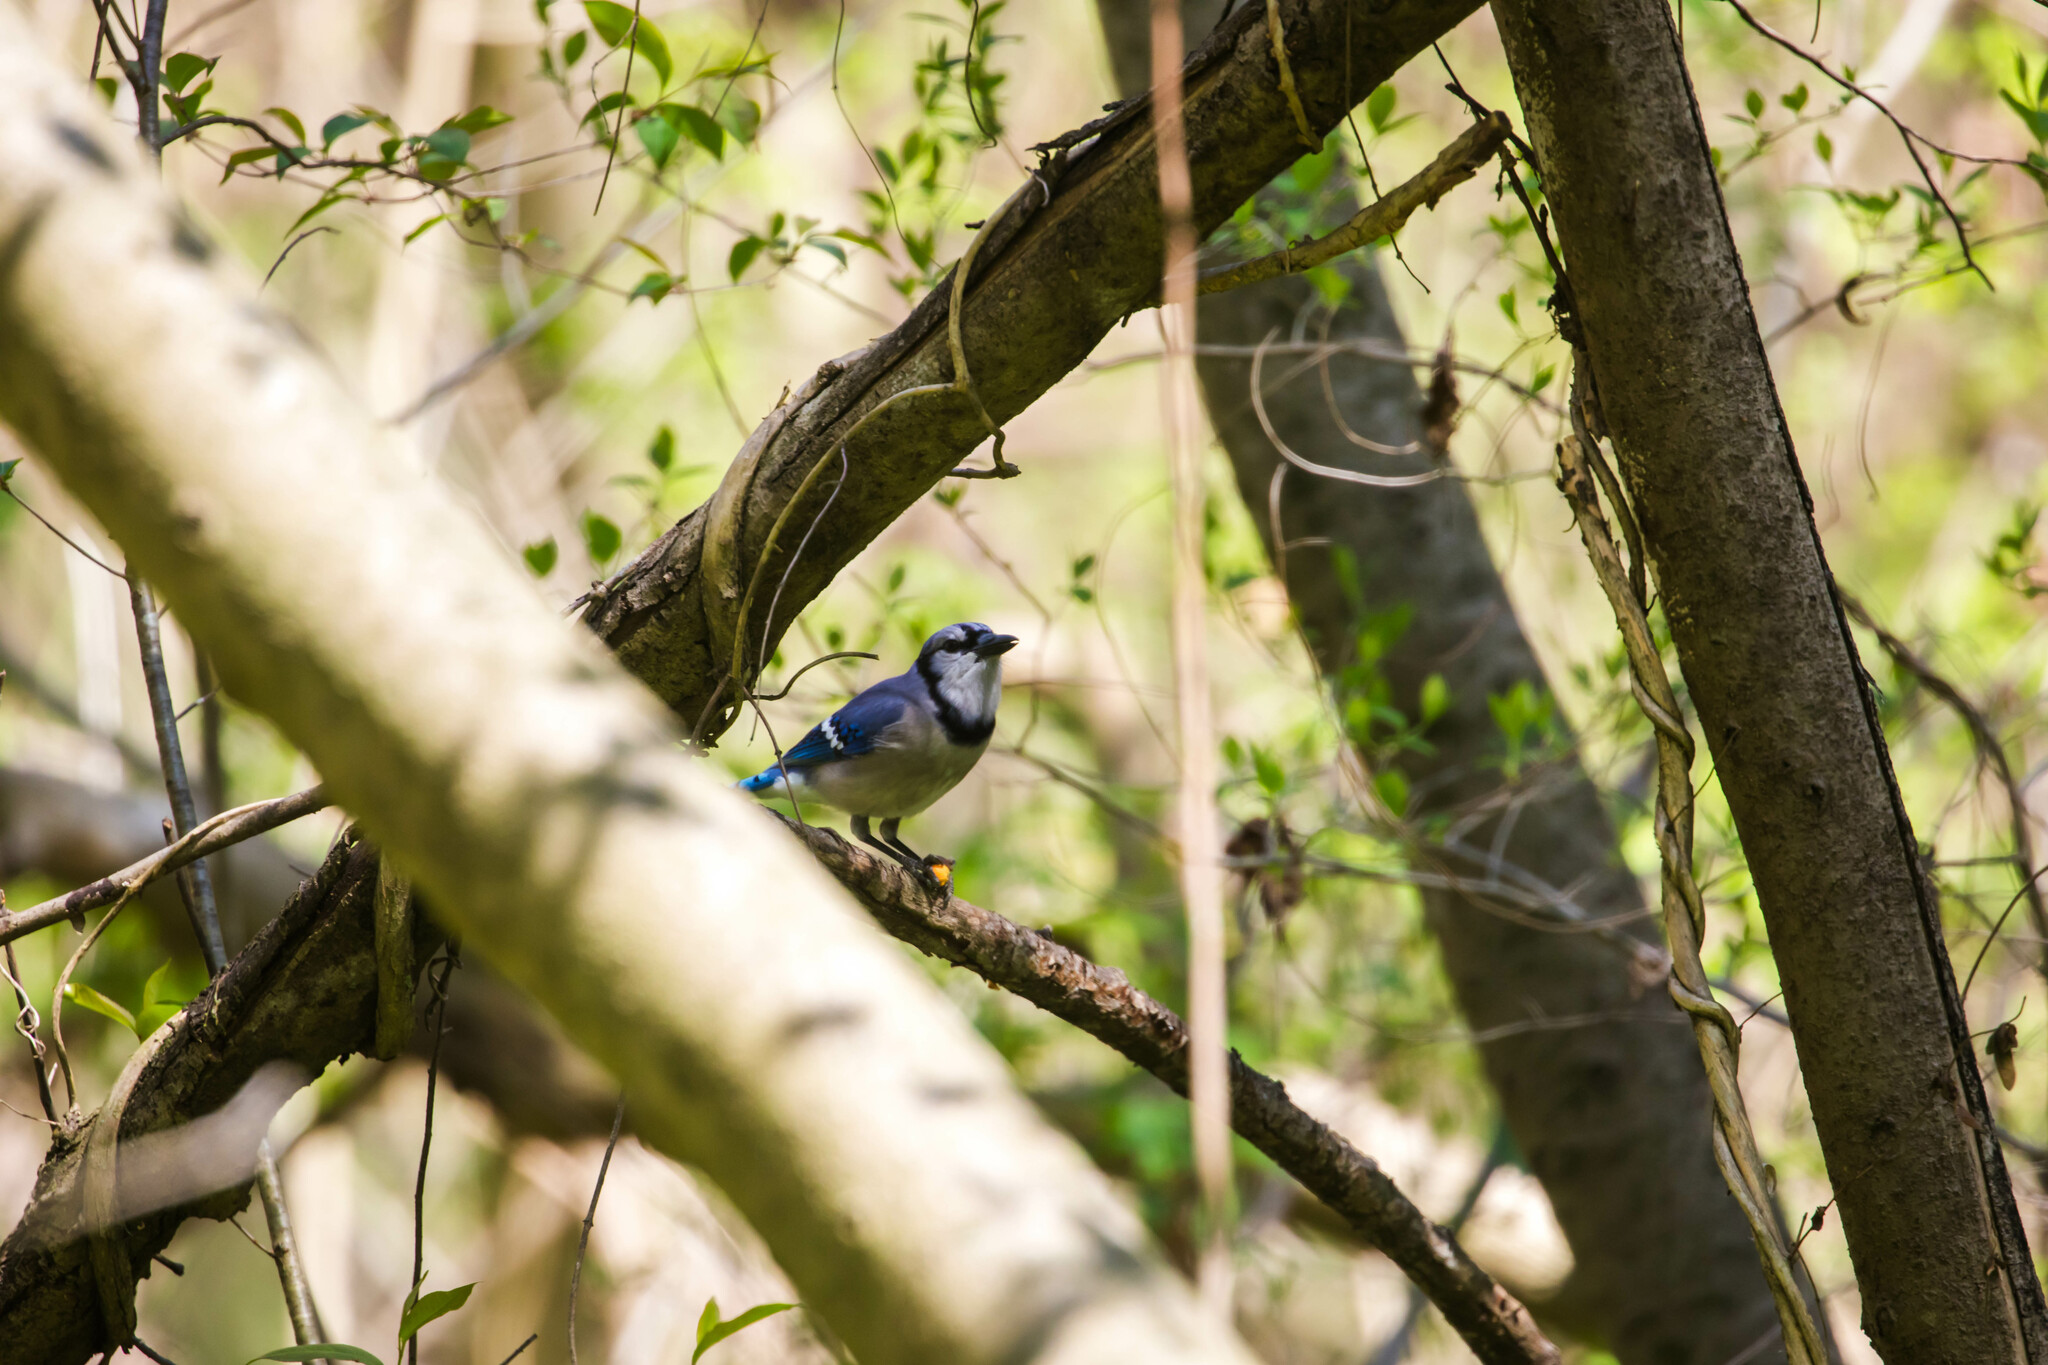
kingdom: Animalia
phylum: Chordata
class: Aves
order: Passeriformes
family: Corvidae
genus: Cyanocitta
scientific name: Cyanocitta cristata
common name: Blue jay
